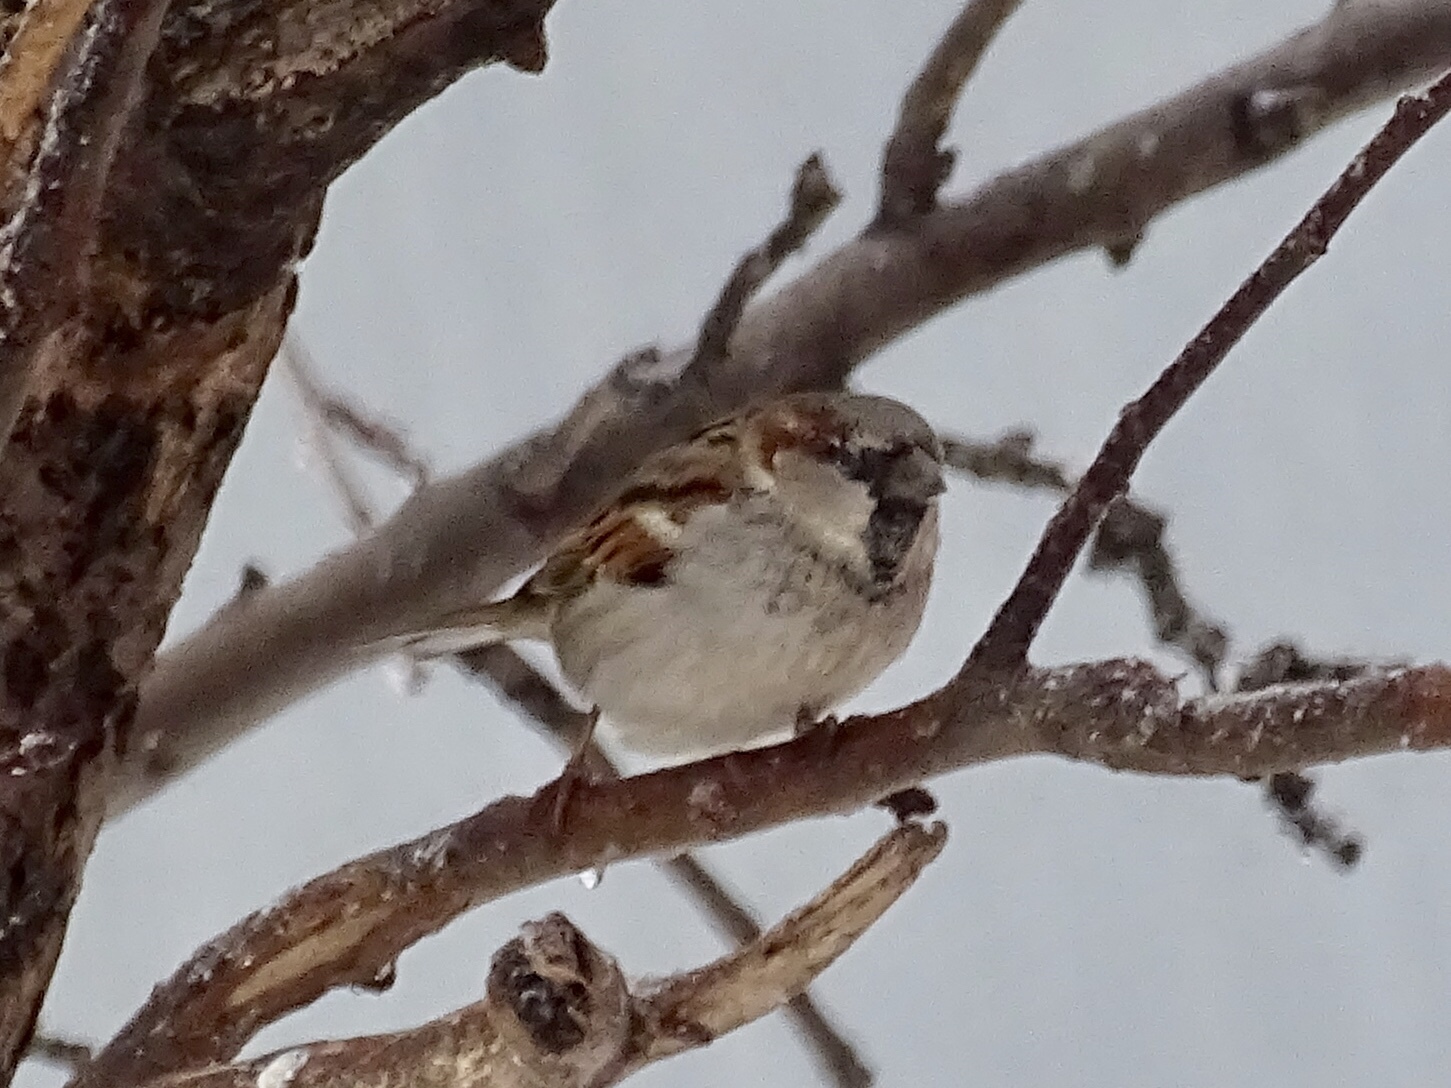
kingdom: Animalia
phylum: Chordata
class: Aves
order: Passeriformes
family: Passeridae
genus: Passer
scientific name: Passer domesticus
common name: House sparrow
